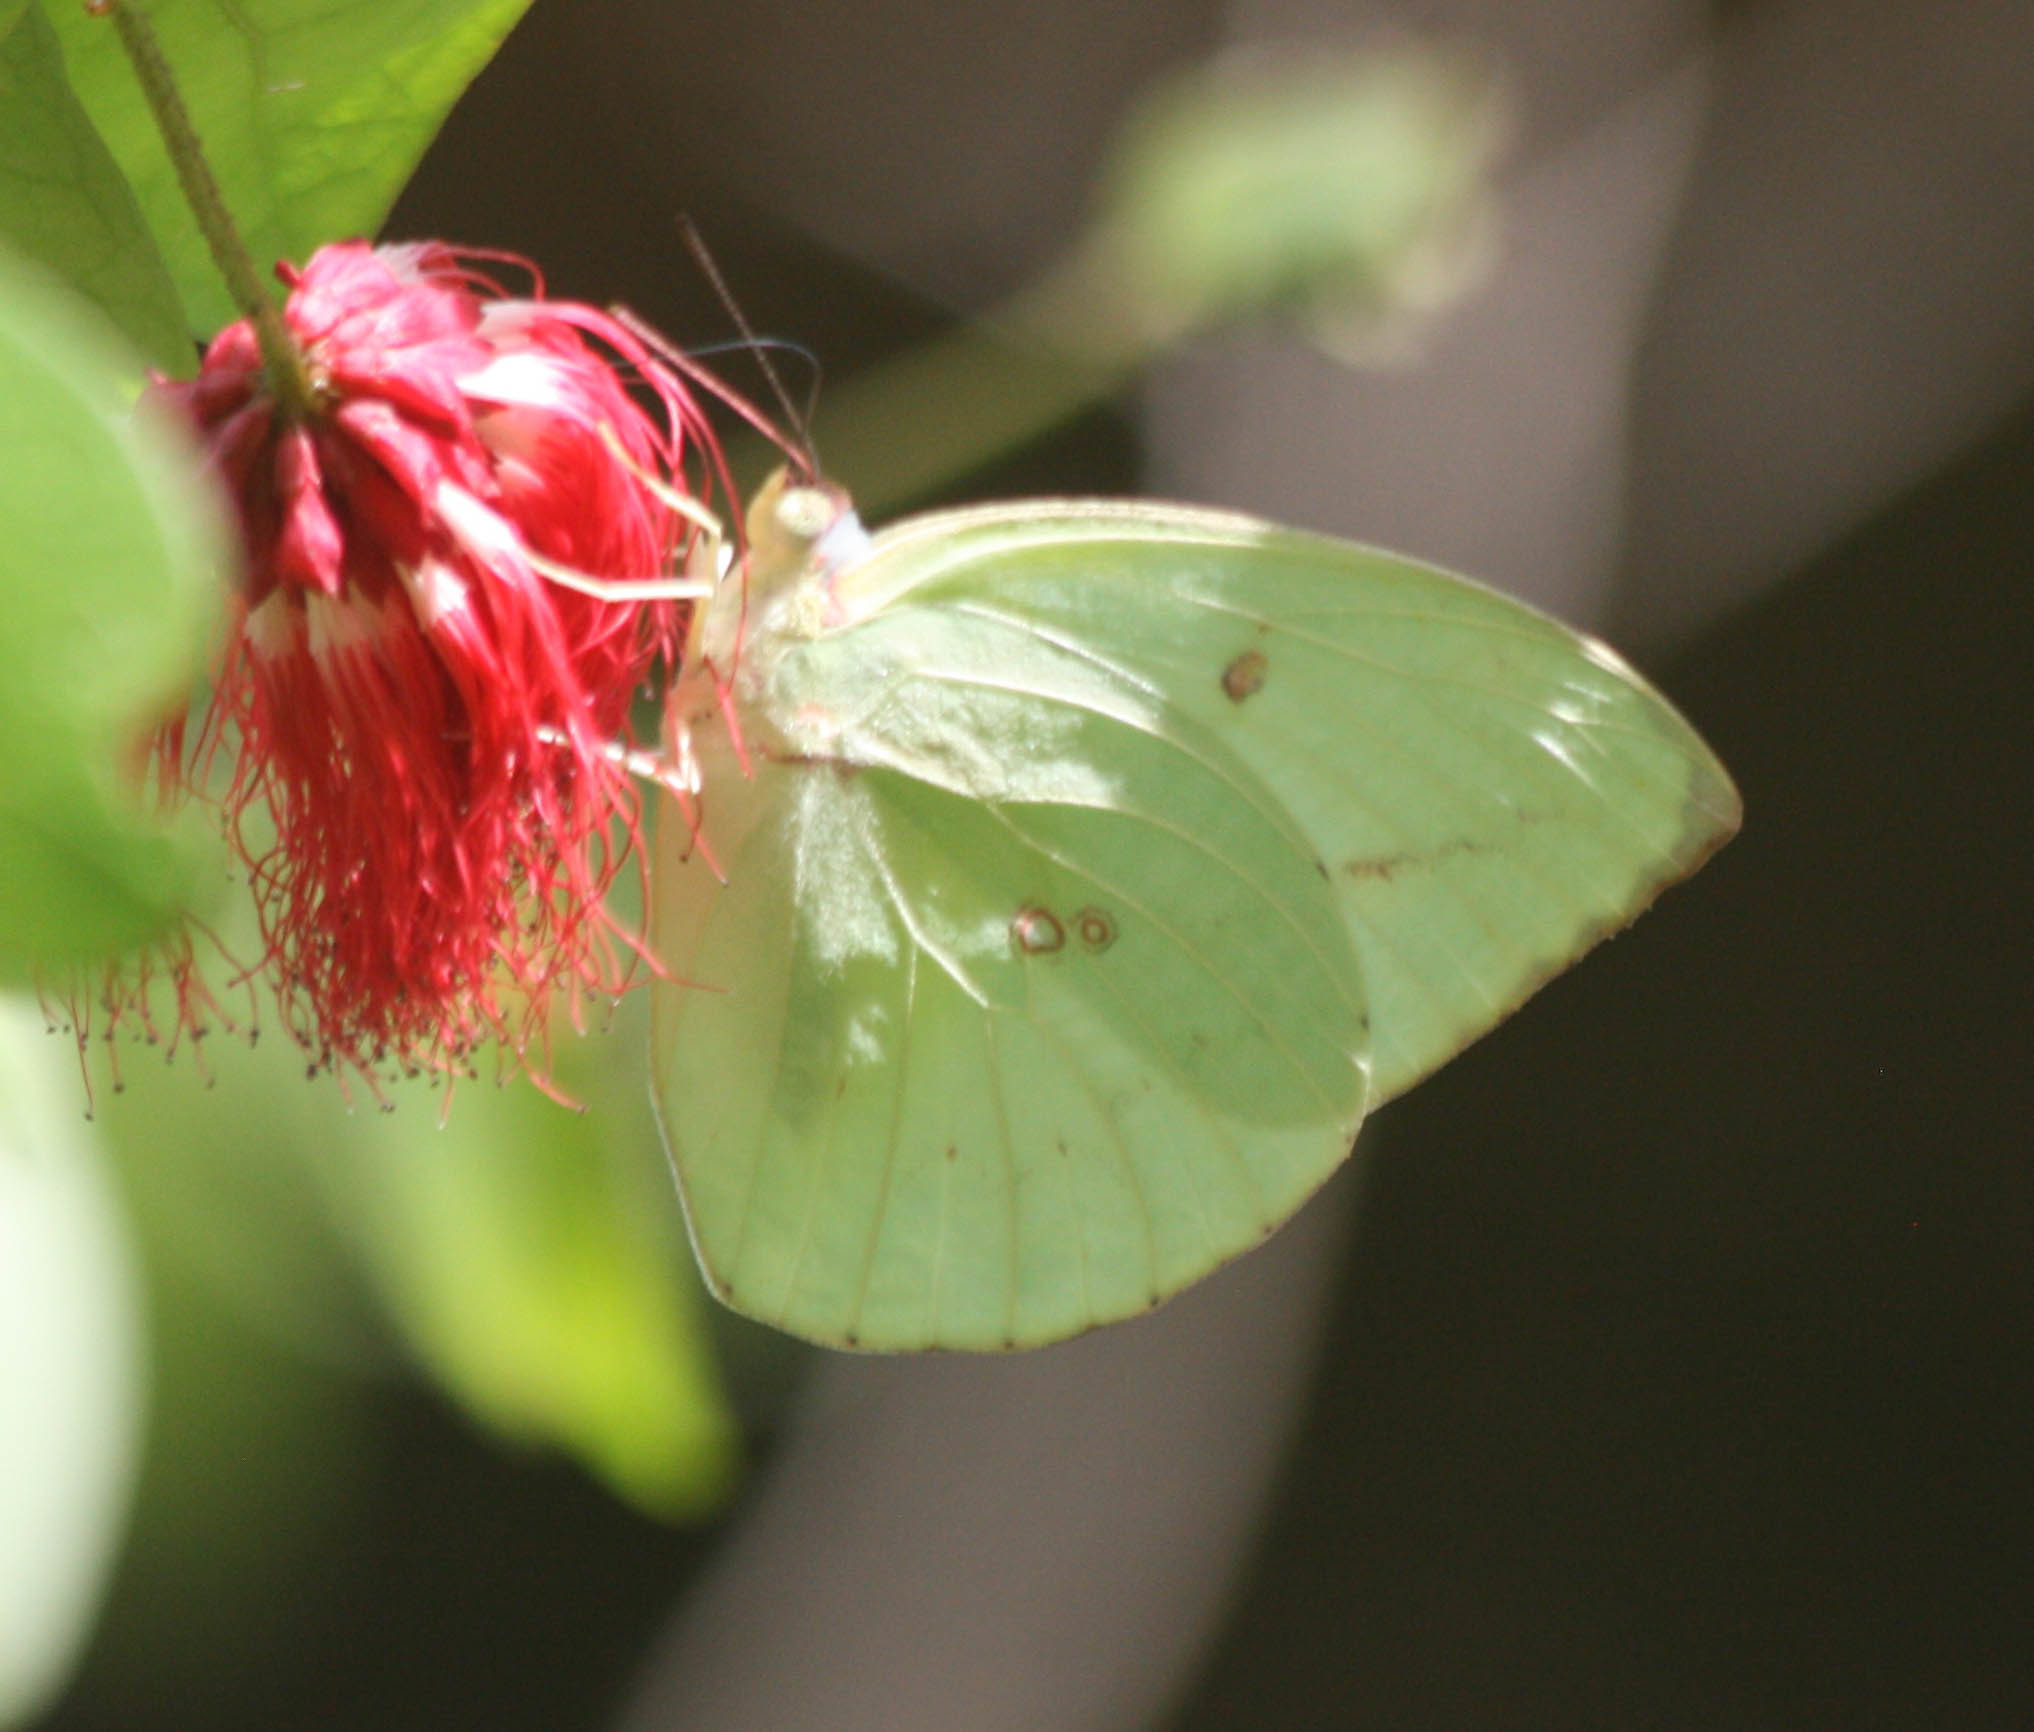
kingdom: Animalia
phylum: Arthropoda
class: Insecta
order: Lepidoptera
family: Pieridae
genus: Catopsilia
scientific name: Catopsilia pomona
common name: Common emigrant
